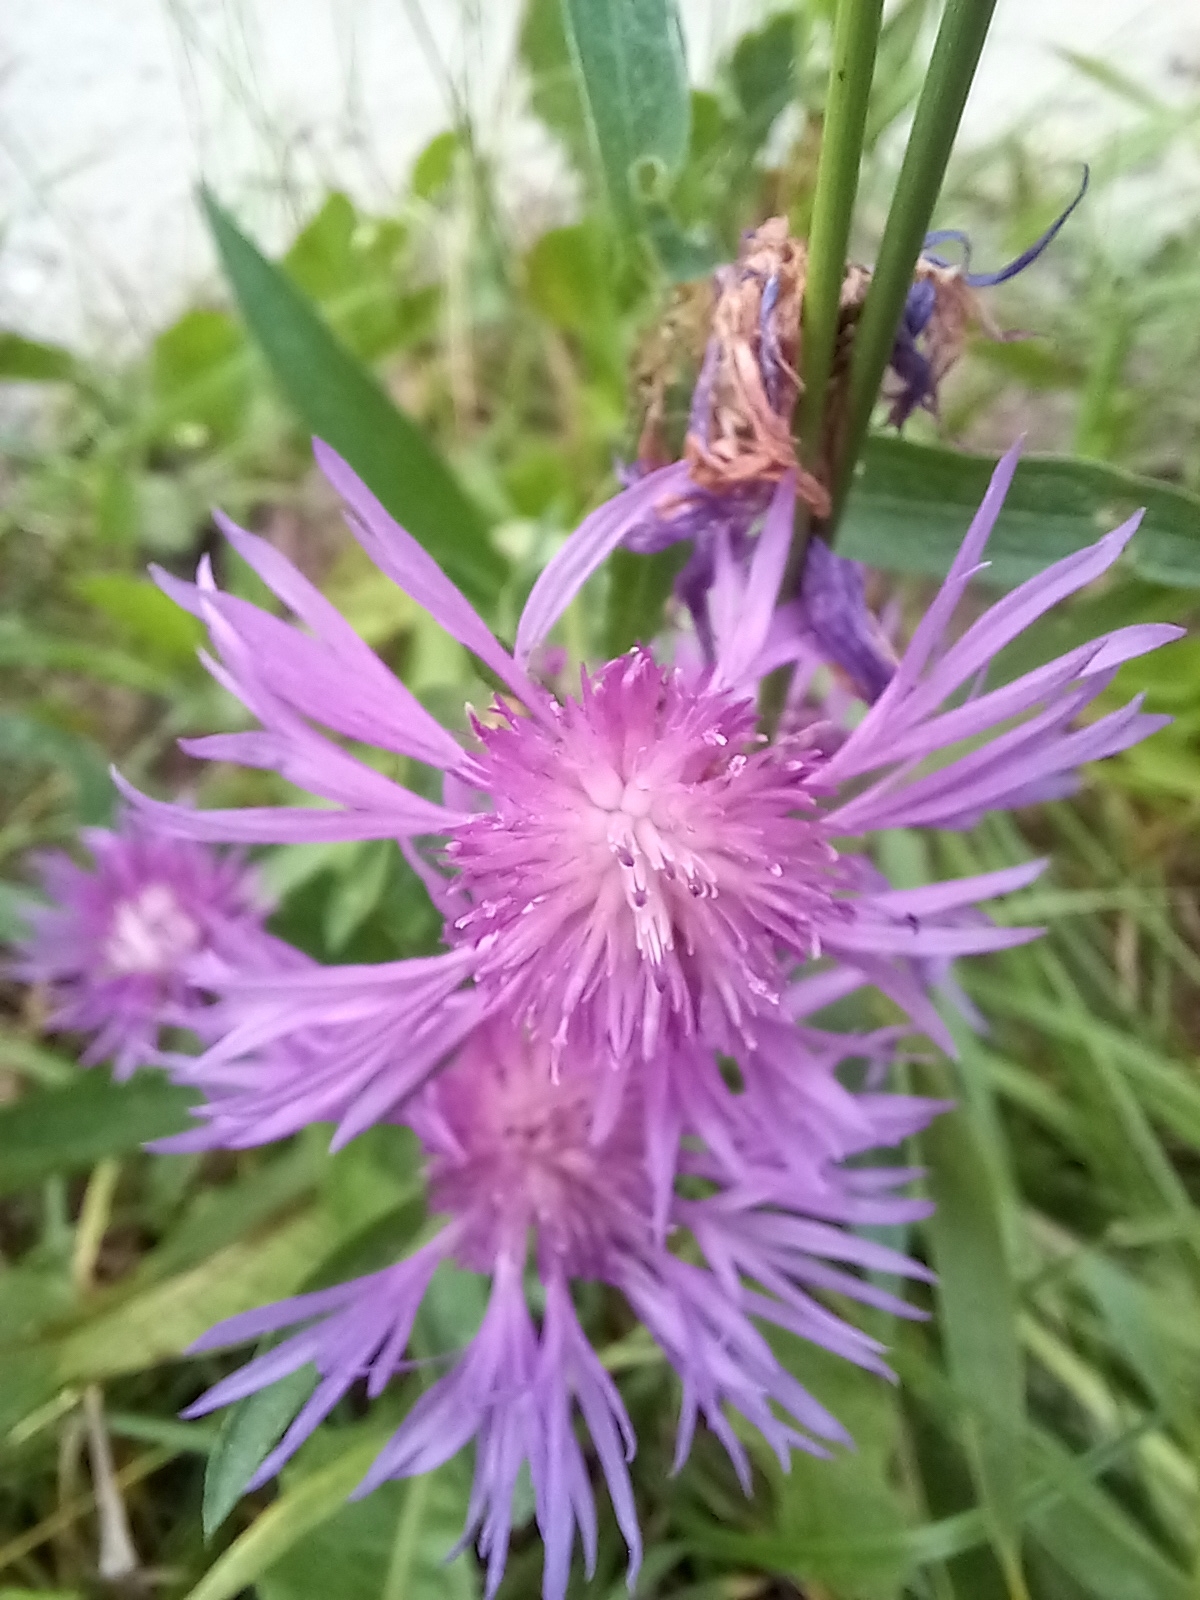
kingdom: Plantae
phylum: Tracheophyta
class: Magnoliopsida
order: Asterales
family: Asteraceae
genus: Centaurea
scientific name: Centaurea jacea
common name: Brown knapweed
